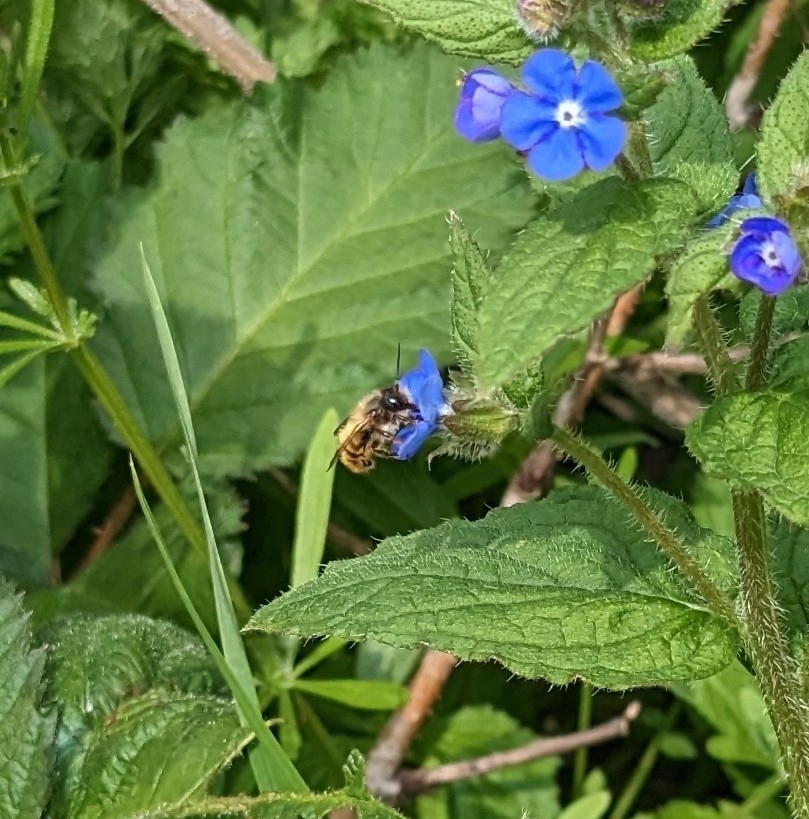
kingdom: Animalia
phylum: Arthropoda
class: Insecta
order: Hymenoptera
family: Megachilidae
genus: Osmia
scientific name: Osmia bicornis
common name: Red mason bee
